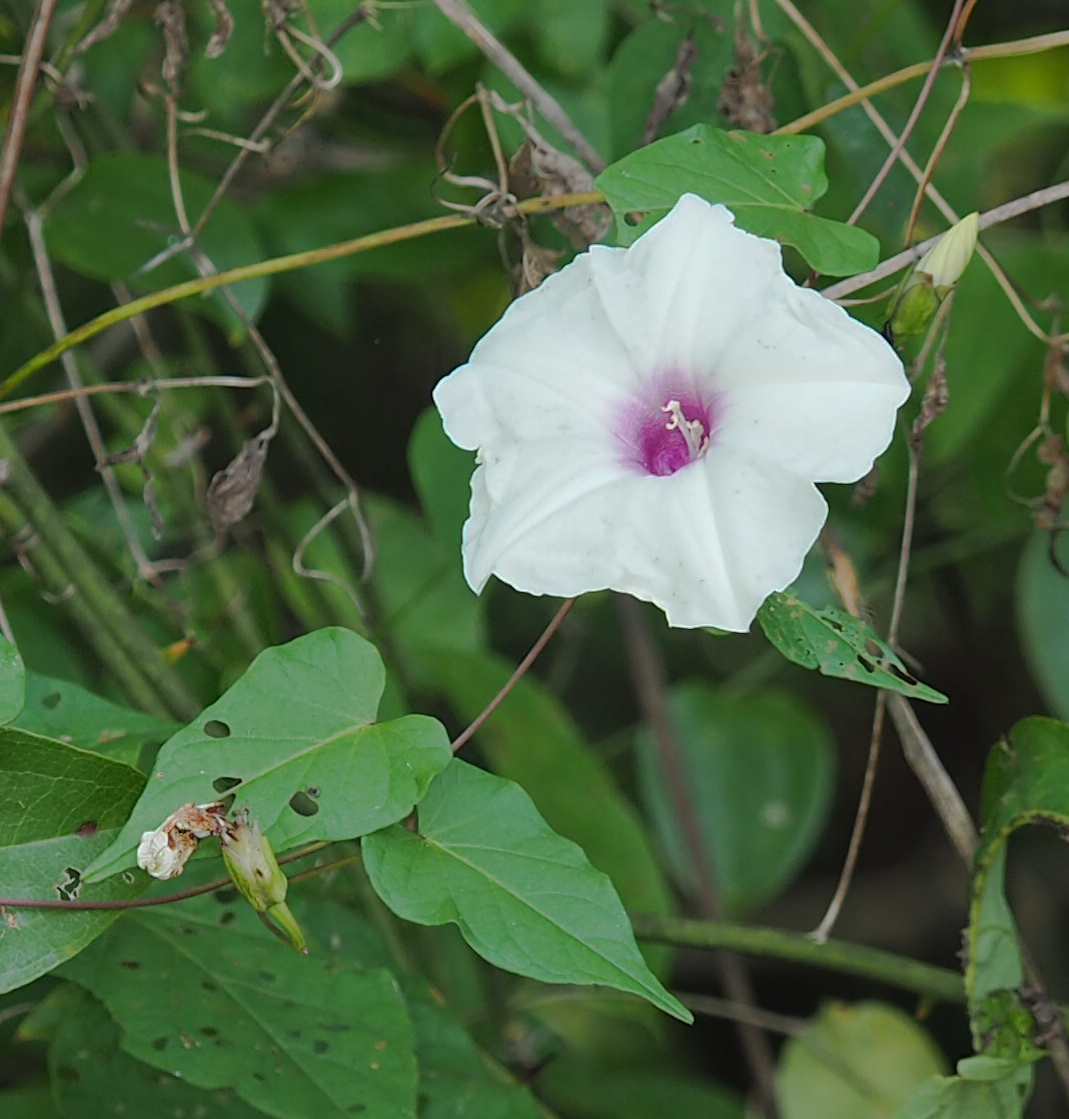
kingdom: Plantae
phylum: Tracheophyta
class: Magnoliopsida
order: Solanales
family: Convolvulaceae
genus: Ipomoea
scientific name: Ipomoea pandurata
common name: Man-of-the-earth
